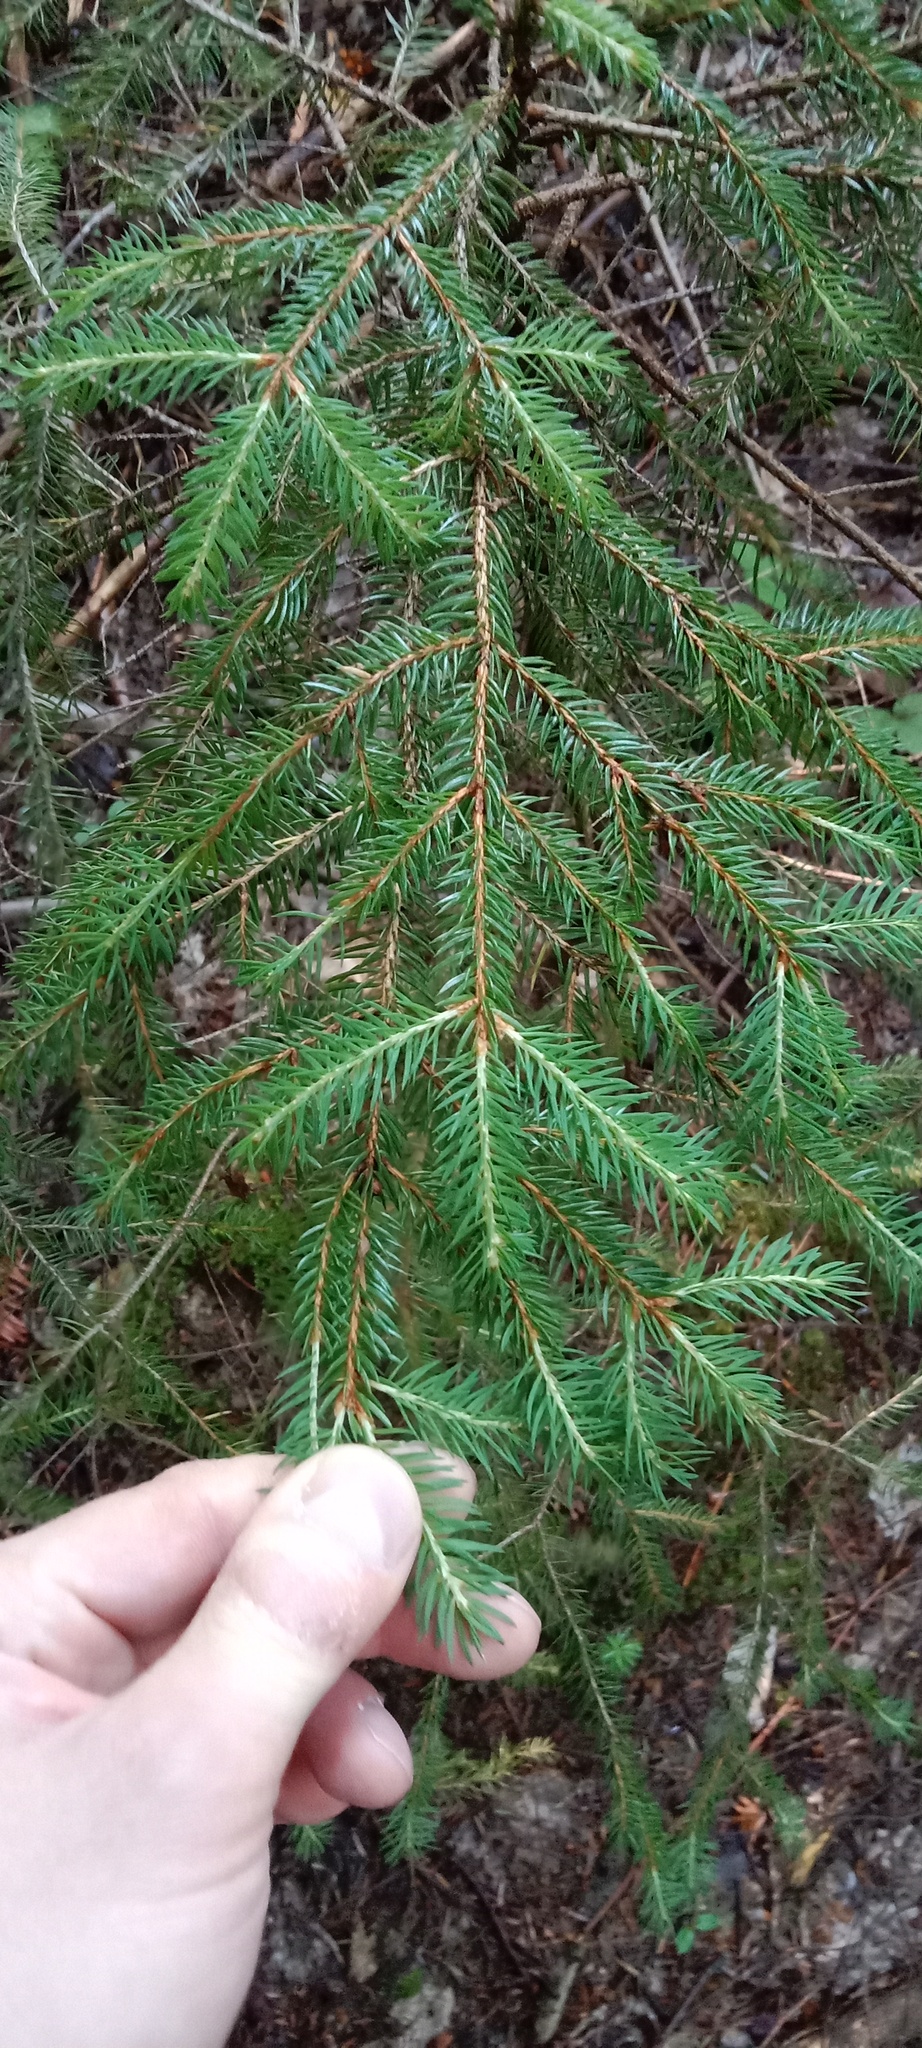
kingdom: Plantae
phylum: Tracheophyta
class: Pinopsida
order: Pinales
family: Pinaceae
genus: Picea
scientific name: Picea abies
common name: Norway spruce
